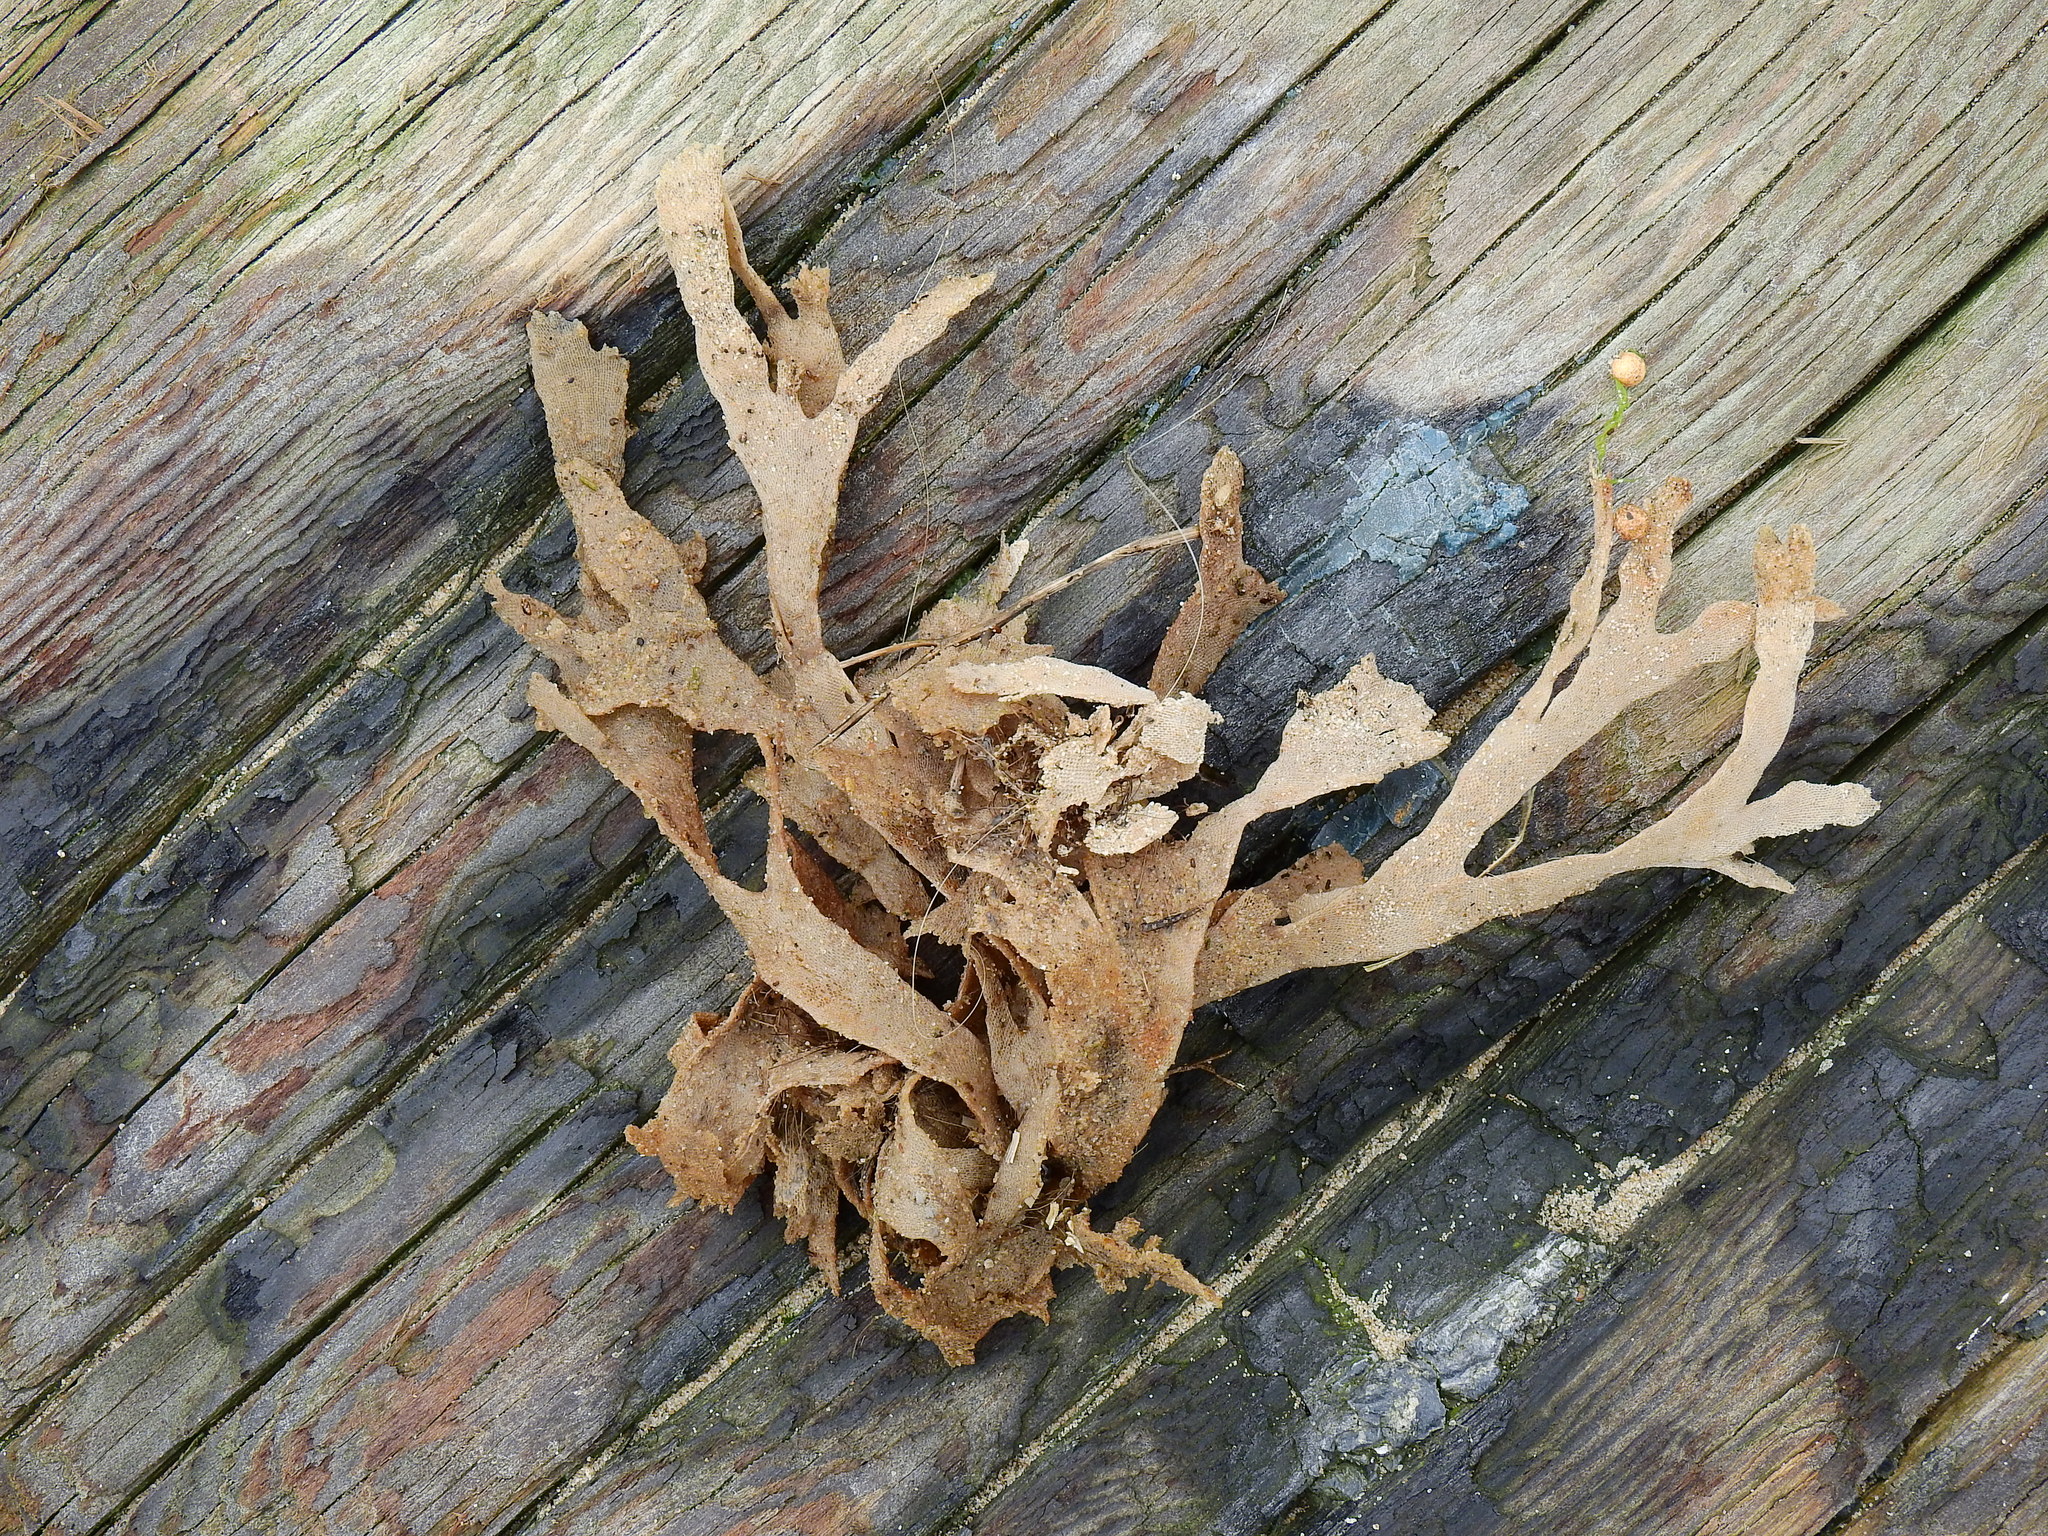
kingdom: Animalia
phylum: Bryozoa
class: Gymnolaemata
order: Cheilostomatida
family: Flustridae
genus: Flustra
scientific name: Flustra foliacea
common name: Hornwrack
